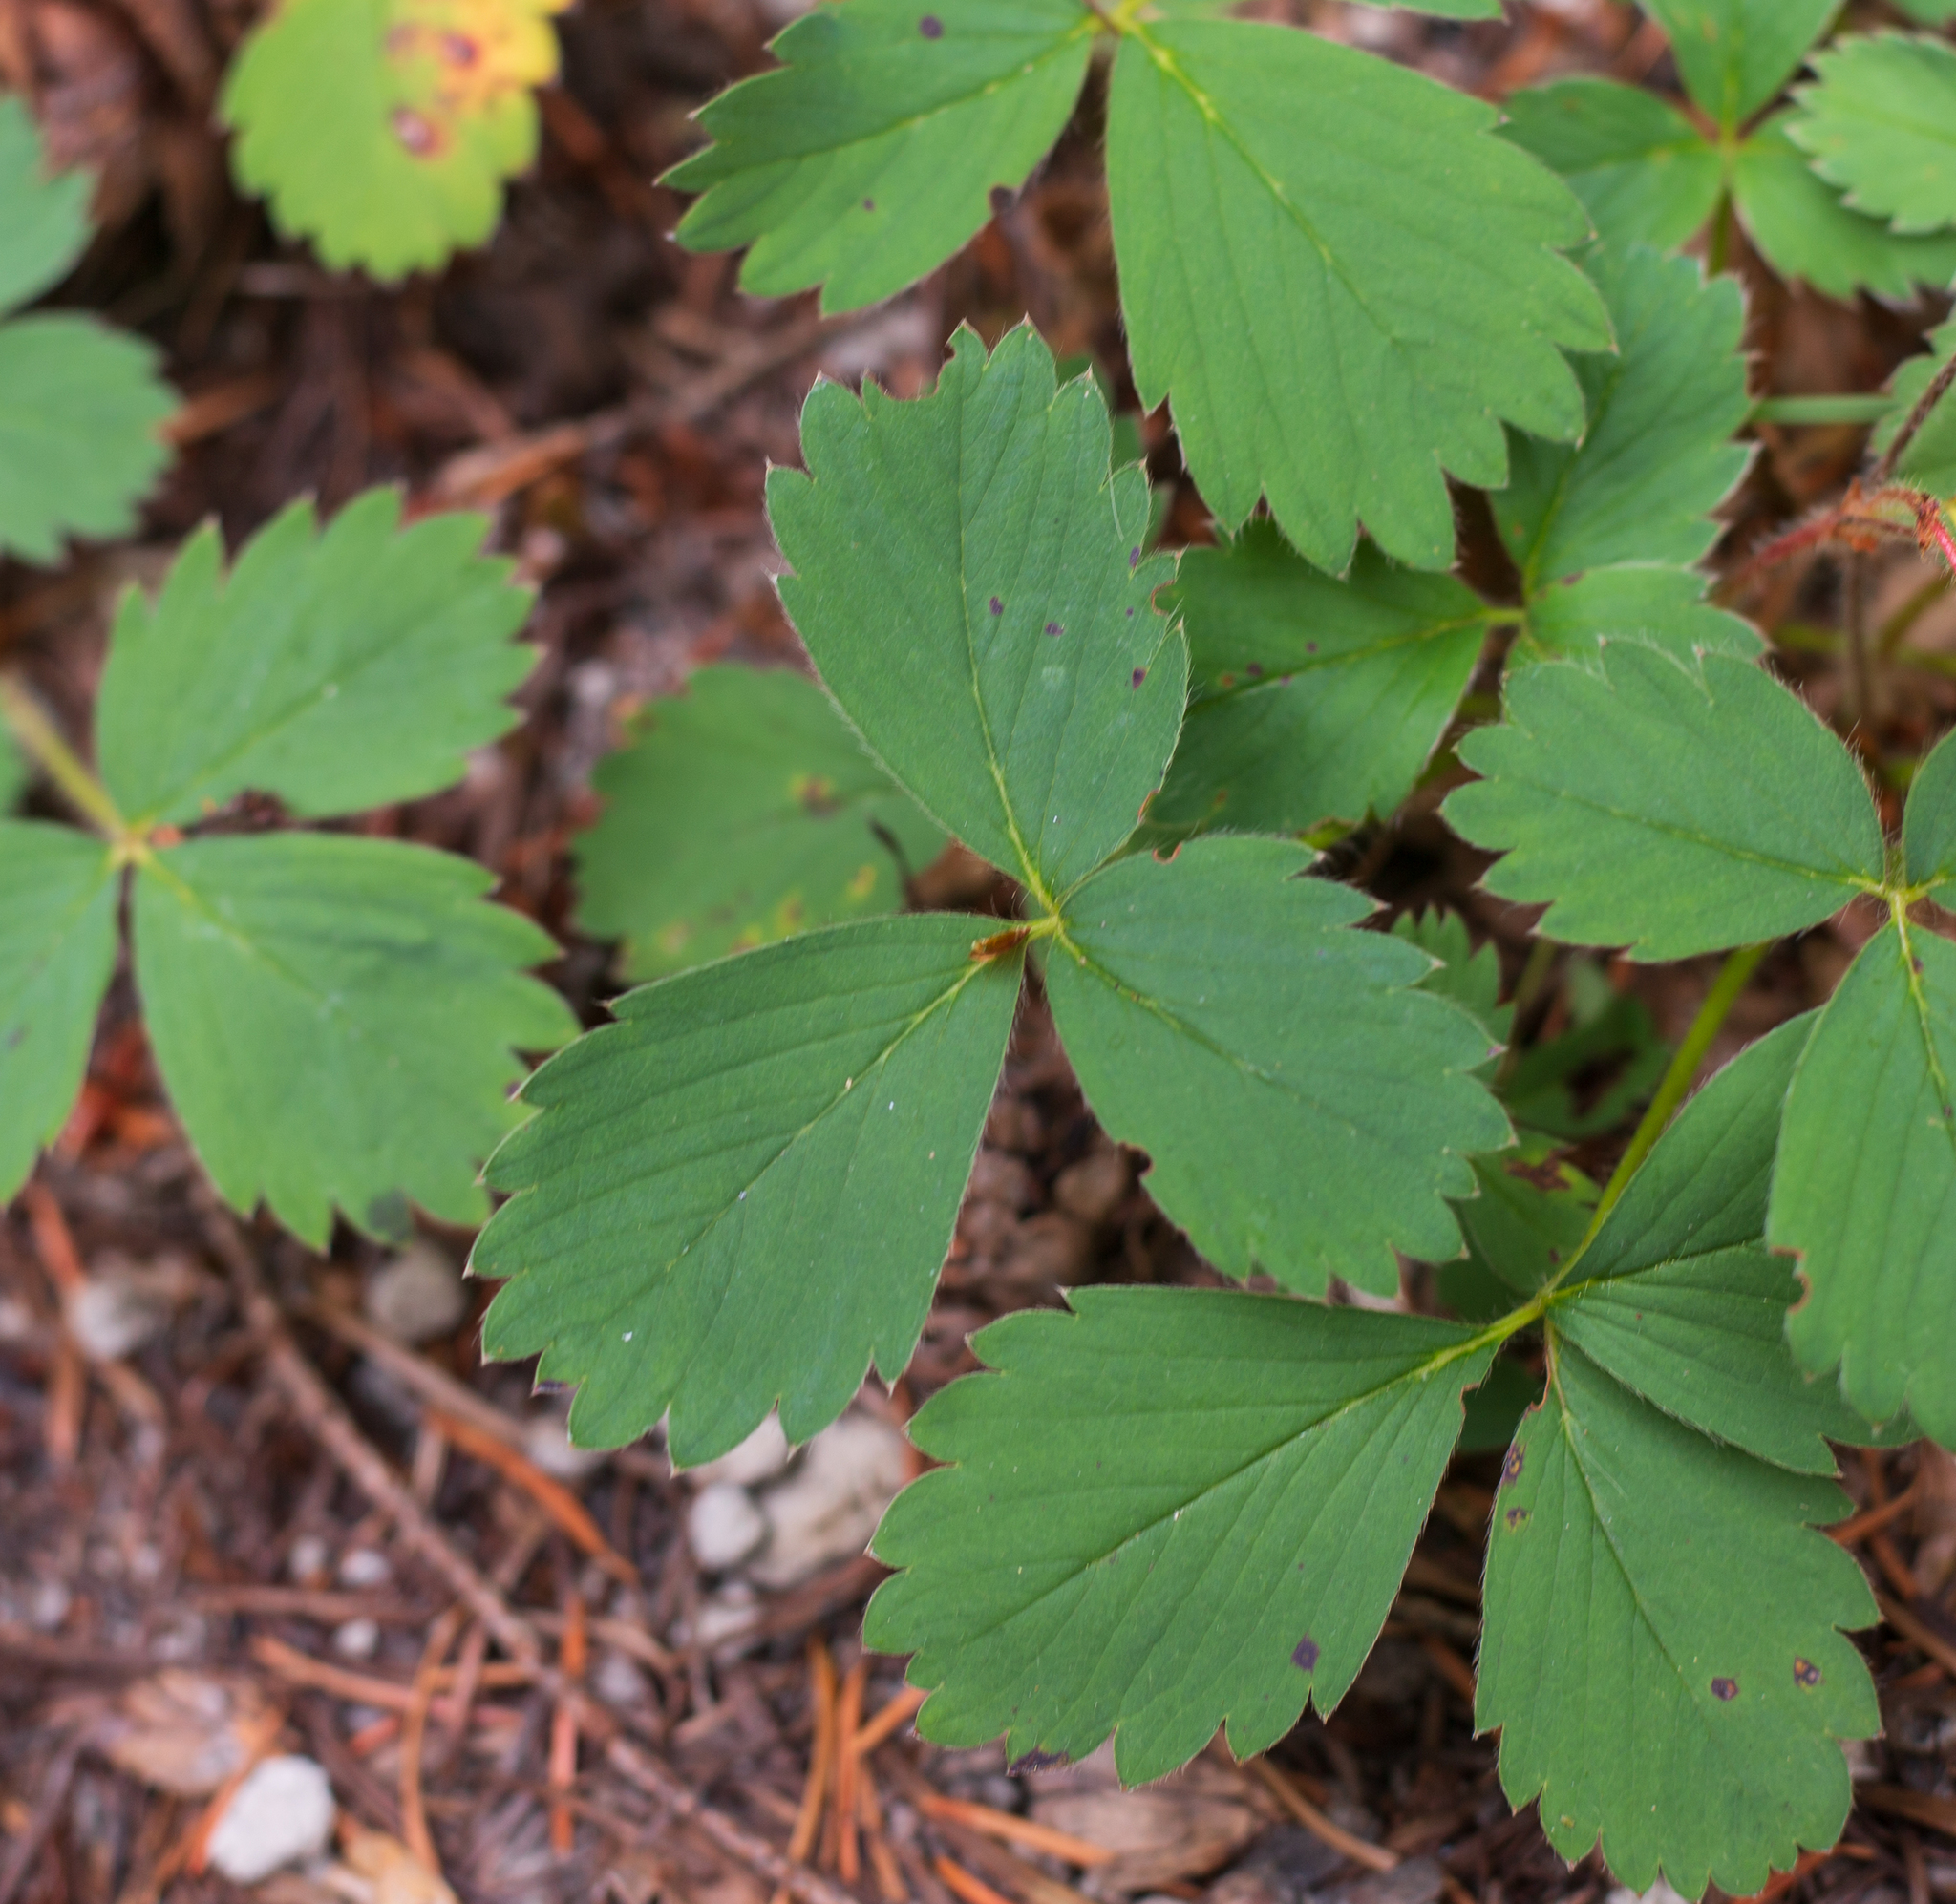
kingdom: Plantae
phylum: Tracheophyta
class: Magnoliopsida
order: Rosales
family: Rosaceae
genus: Fragaria
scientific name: Fragaria virginiana
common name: Thickleaved wild strawberry
